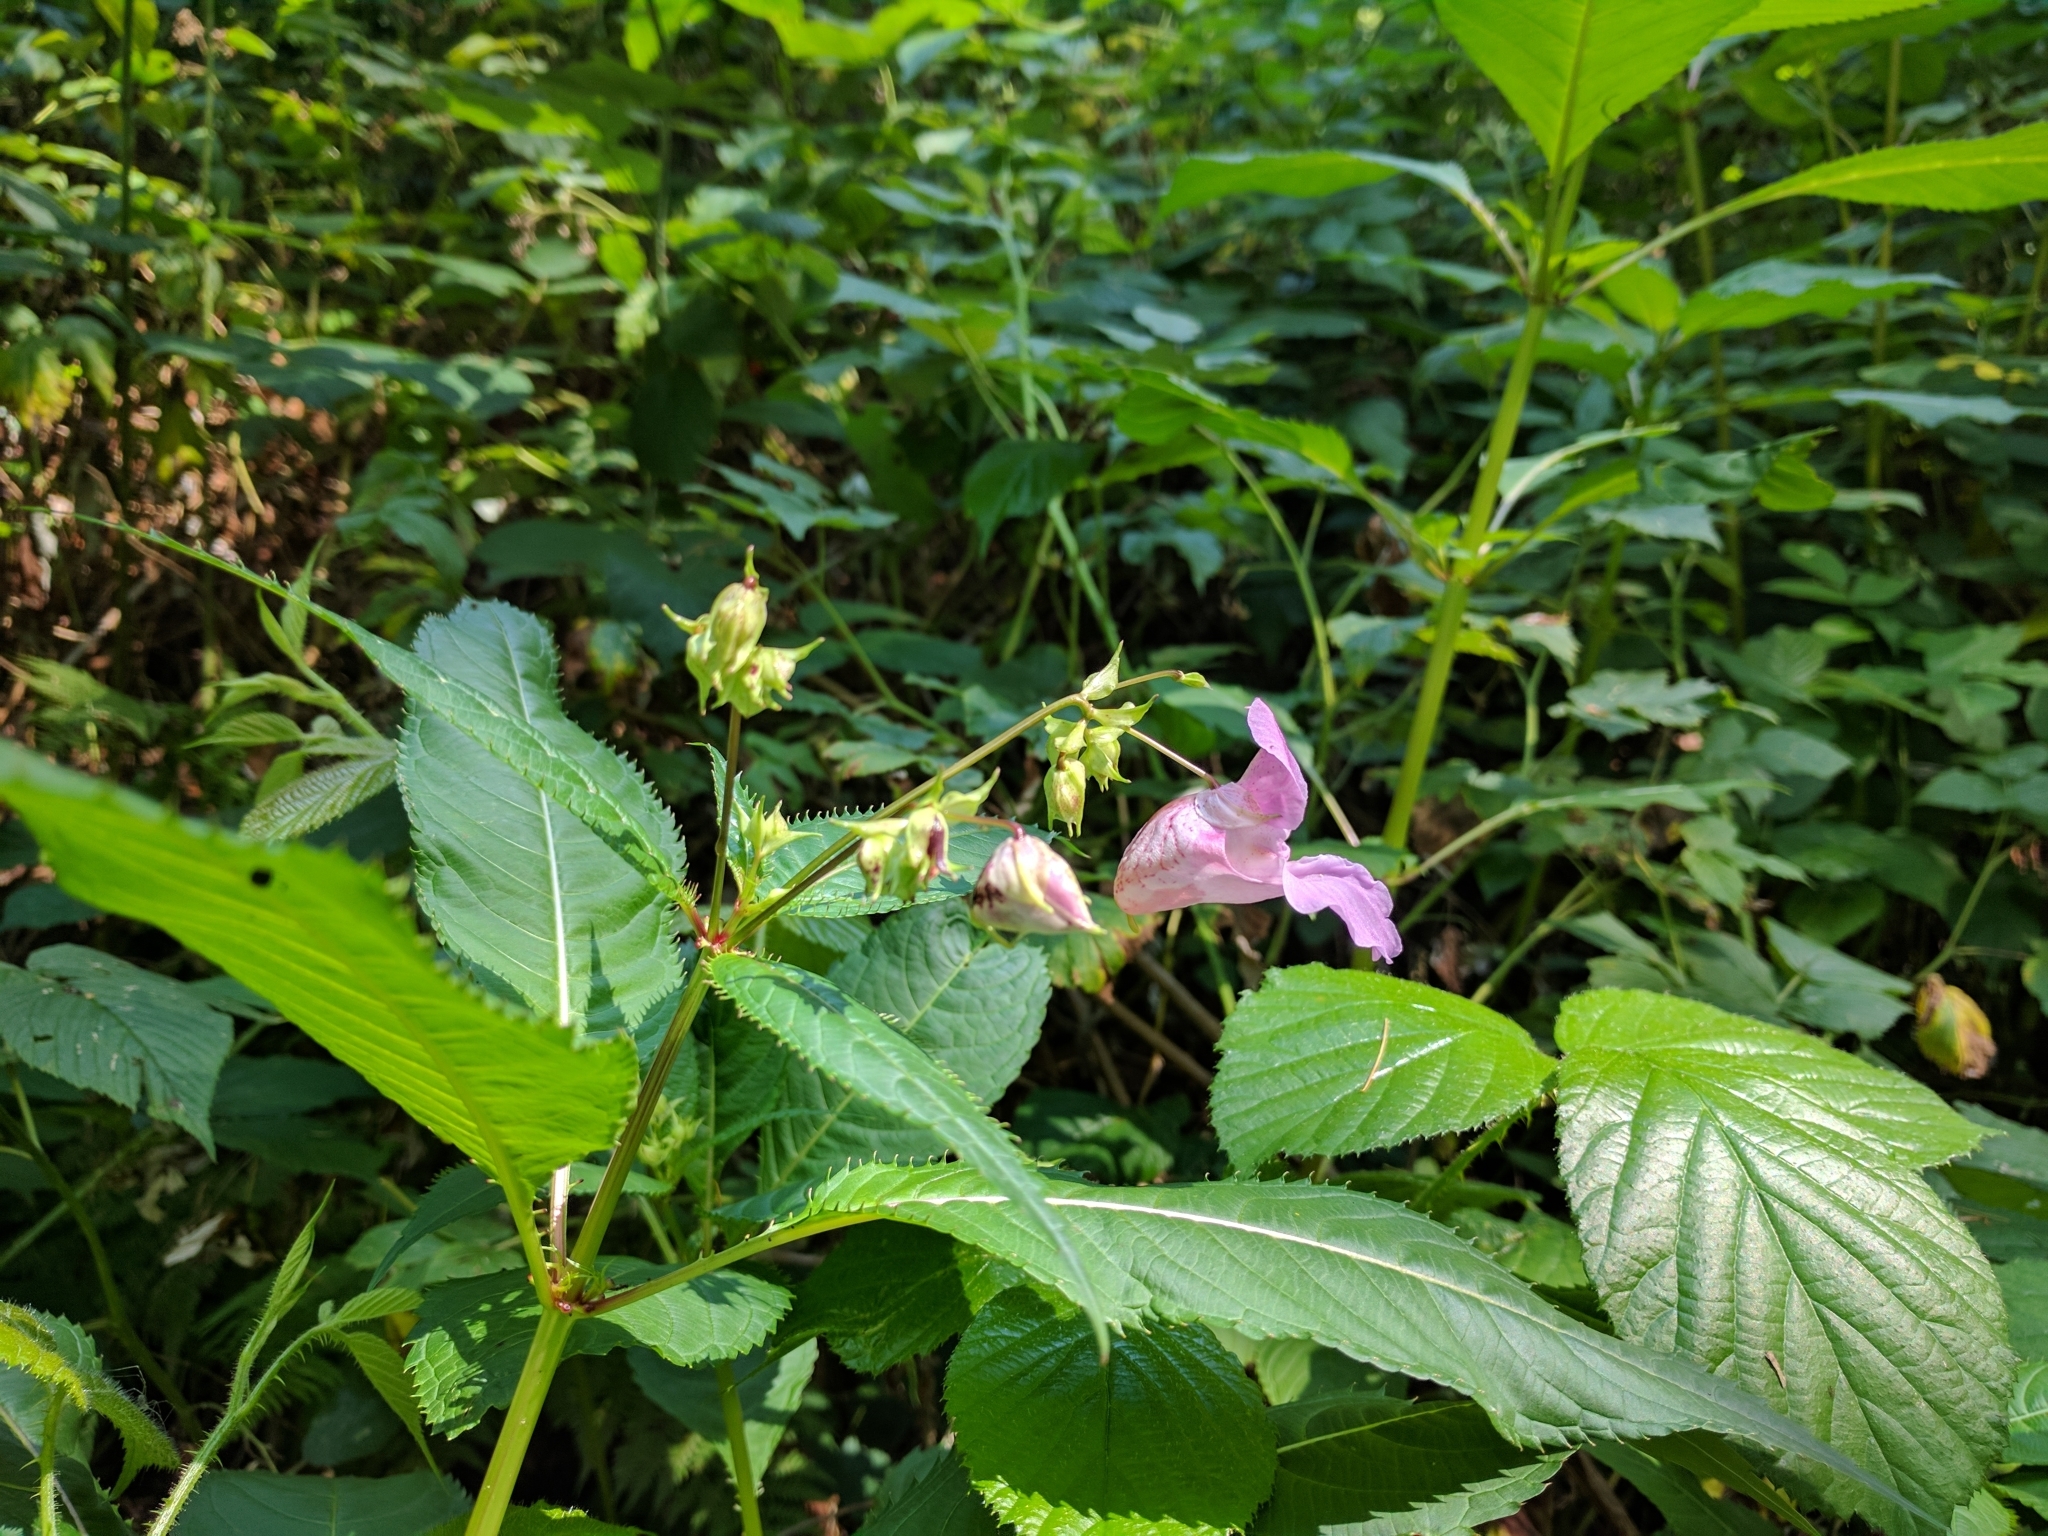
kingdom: Plantae
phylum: Tracheophyta
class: Magnoliopsida
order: Ericales
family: Balsaminaceae
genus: Impatiens
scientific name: Impatiens glandulifera
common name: Himalayan balsam
